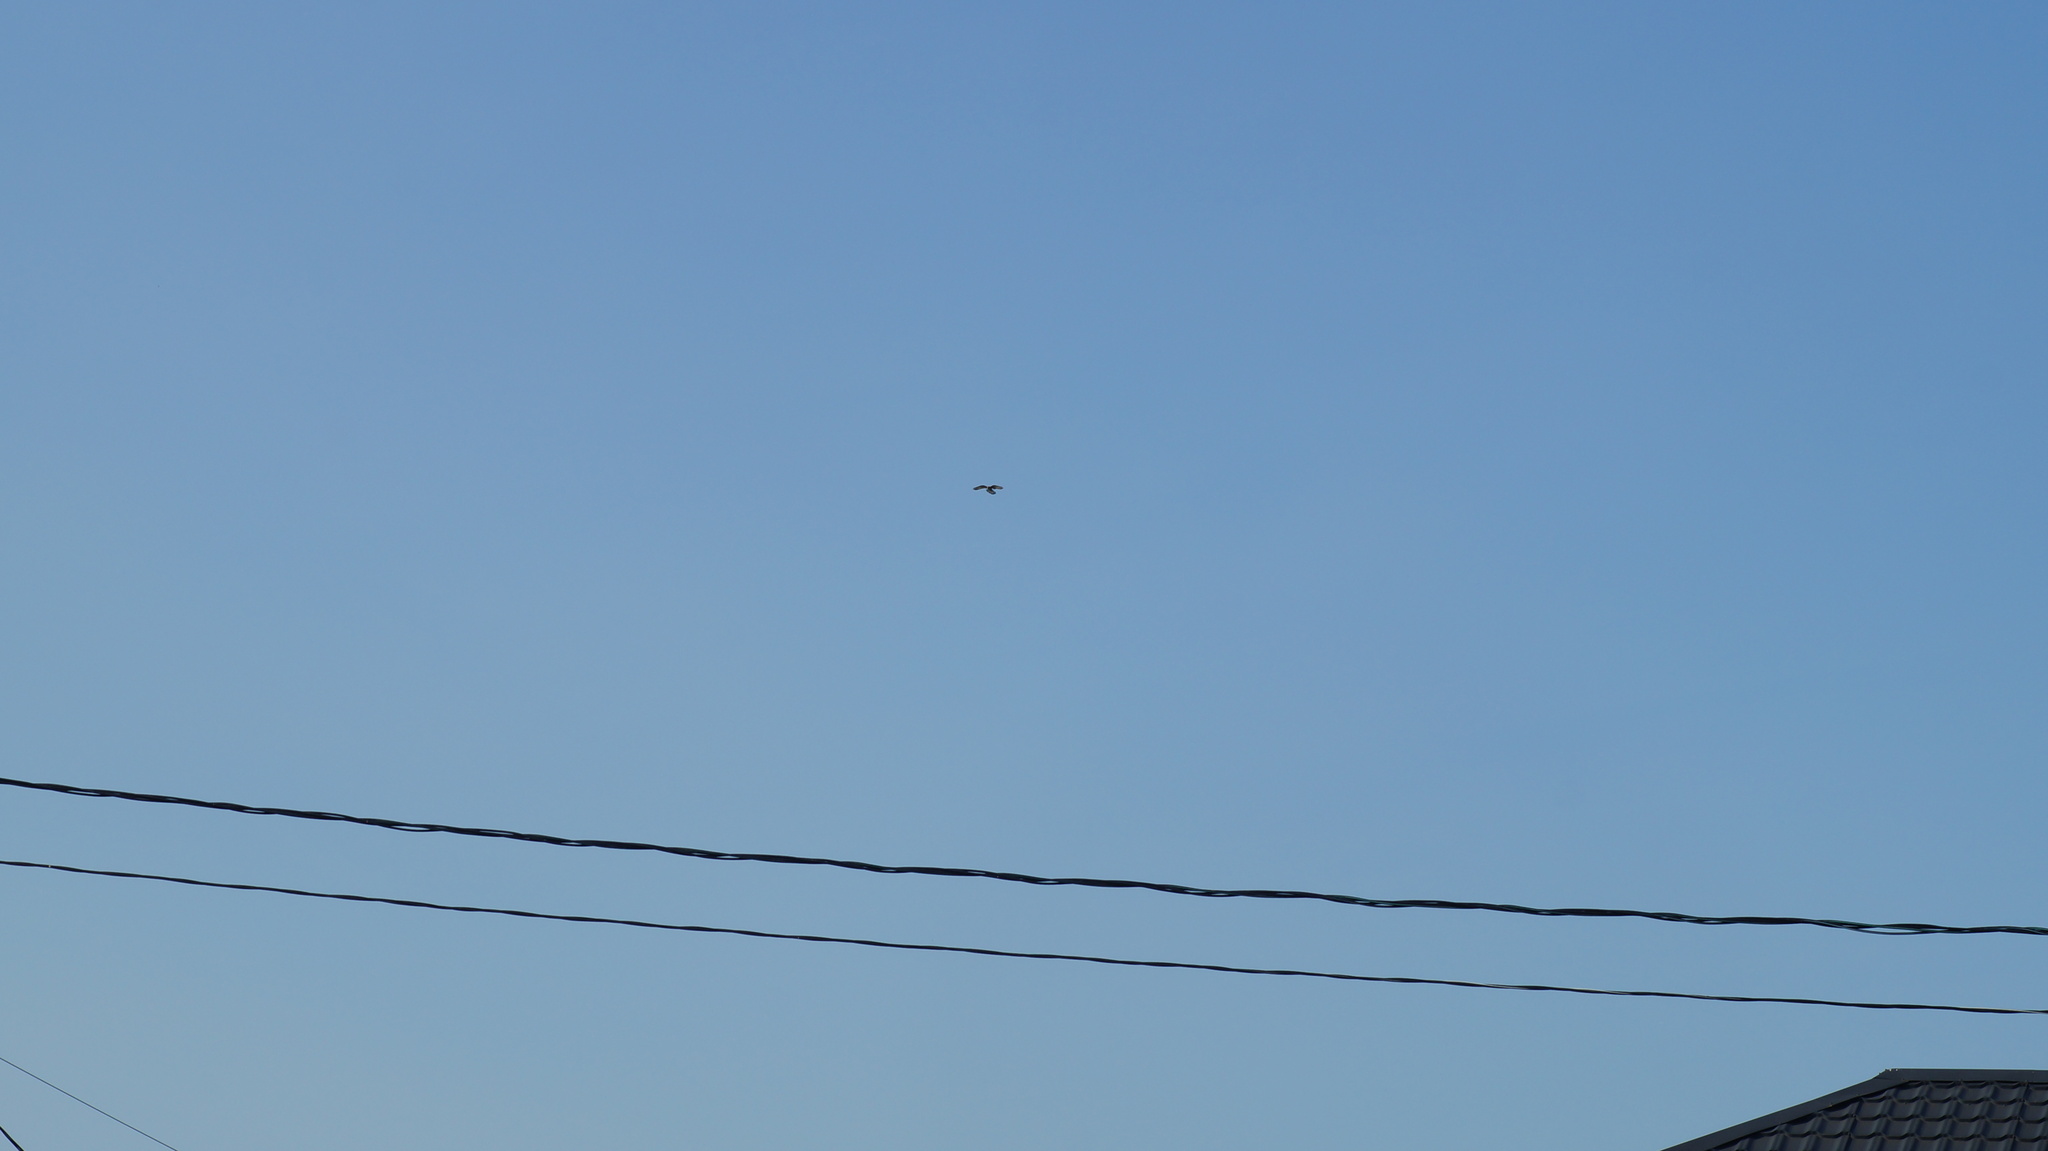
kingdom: Animalia
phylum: Chordata
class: Aves
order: Falconiformes
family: Falconidae
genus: Falco
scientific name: Falco tinnunculus
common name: Common kestrel
